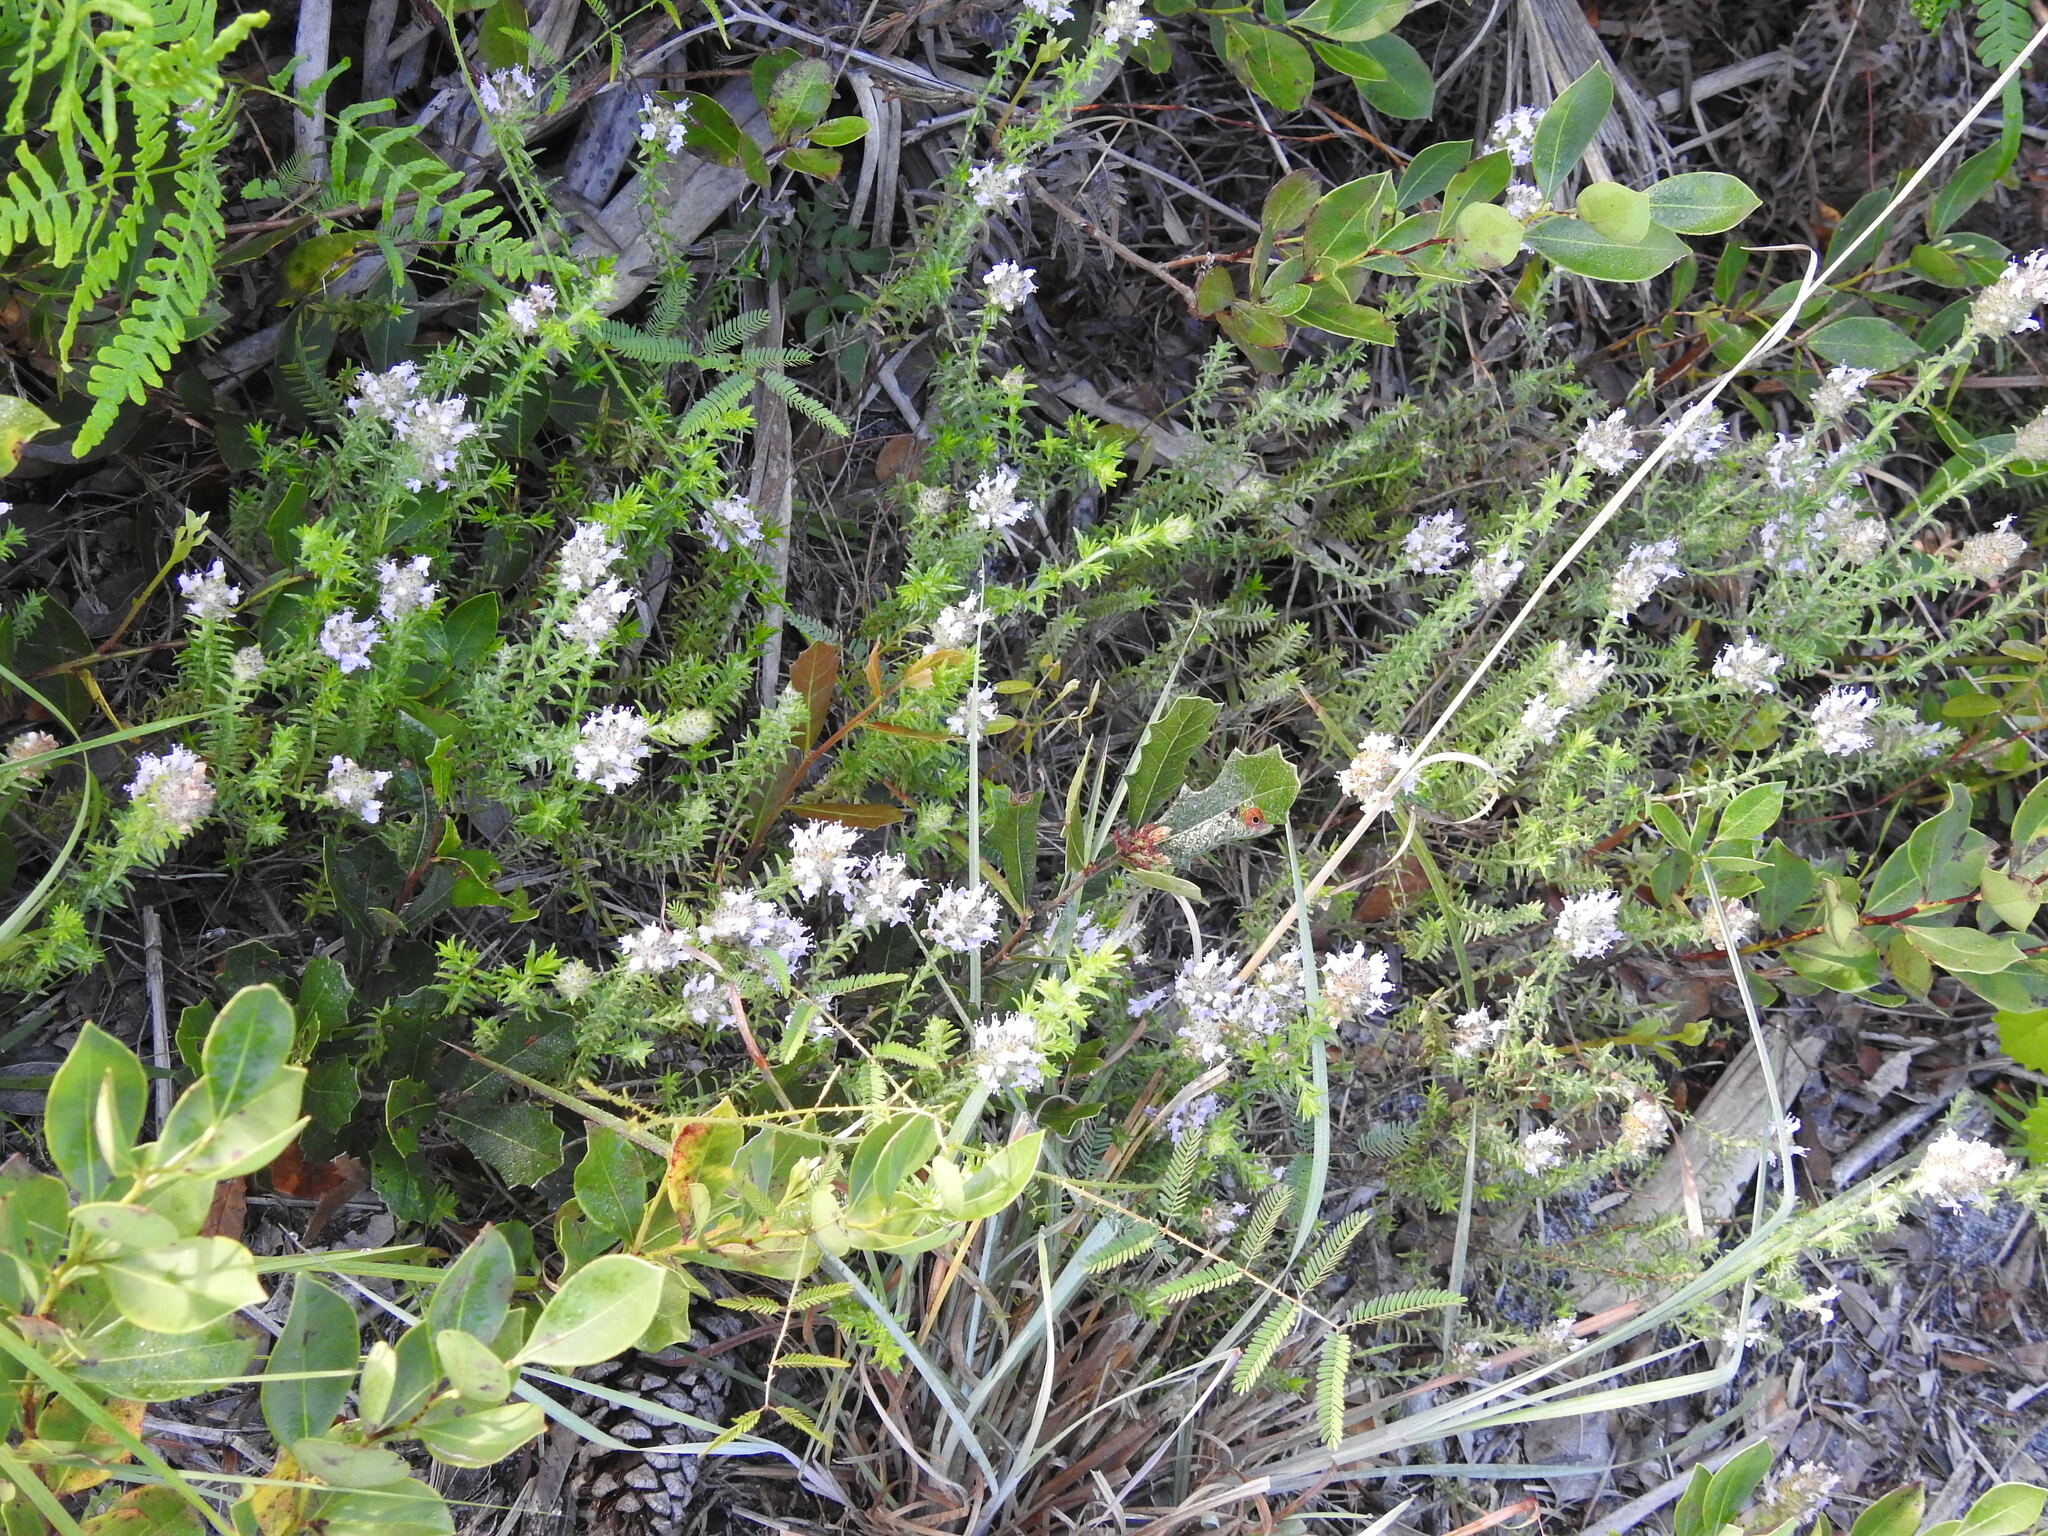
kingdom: Plantae
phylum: Tracheophyta
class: Magnoliopsida
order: Lamiales
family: Lamiaceae
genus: Piloblephis
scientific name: Piloblephis rigida
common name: Wild pennyroyal
